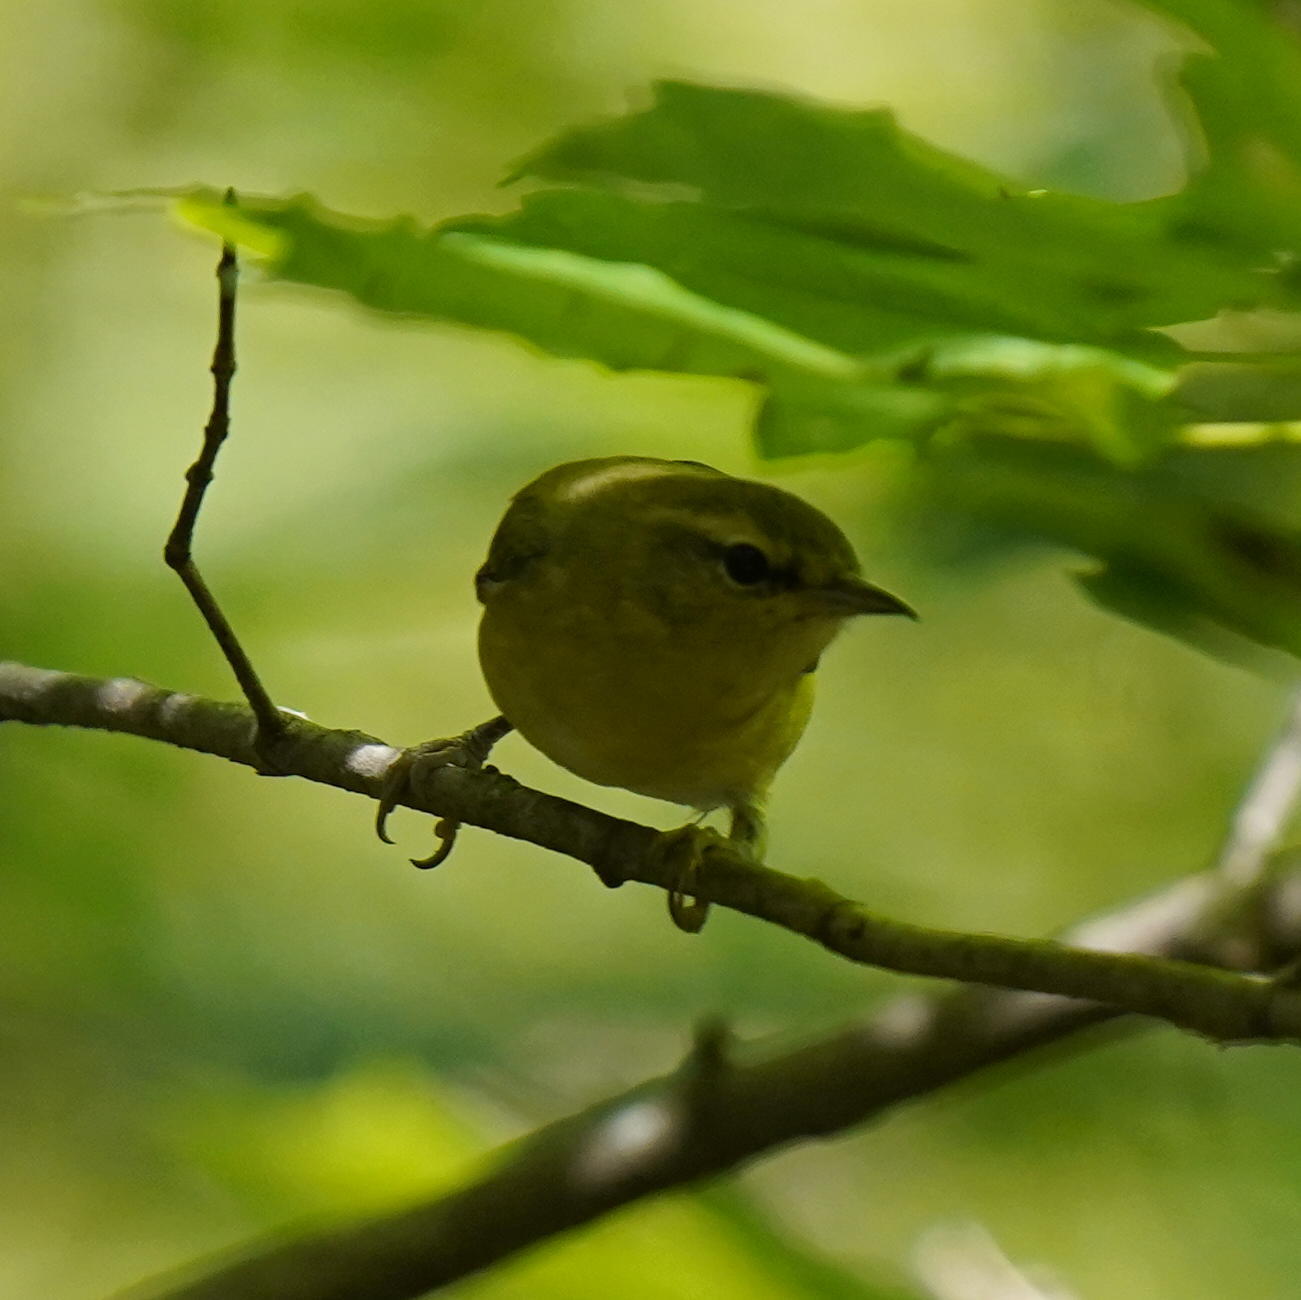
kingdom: Animalia
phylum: Chordata
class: Aves
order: Passeriformes
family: Parulidae
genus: Leiothlypis
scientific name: Leiothlypis peregrina
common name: Tennessee warbler
